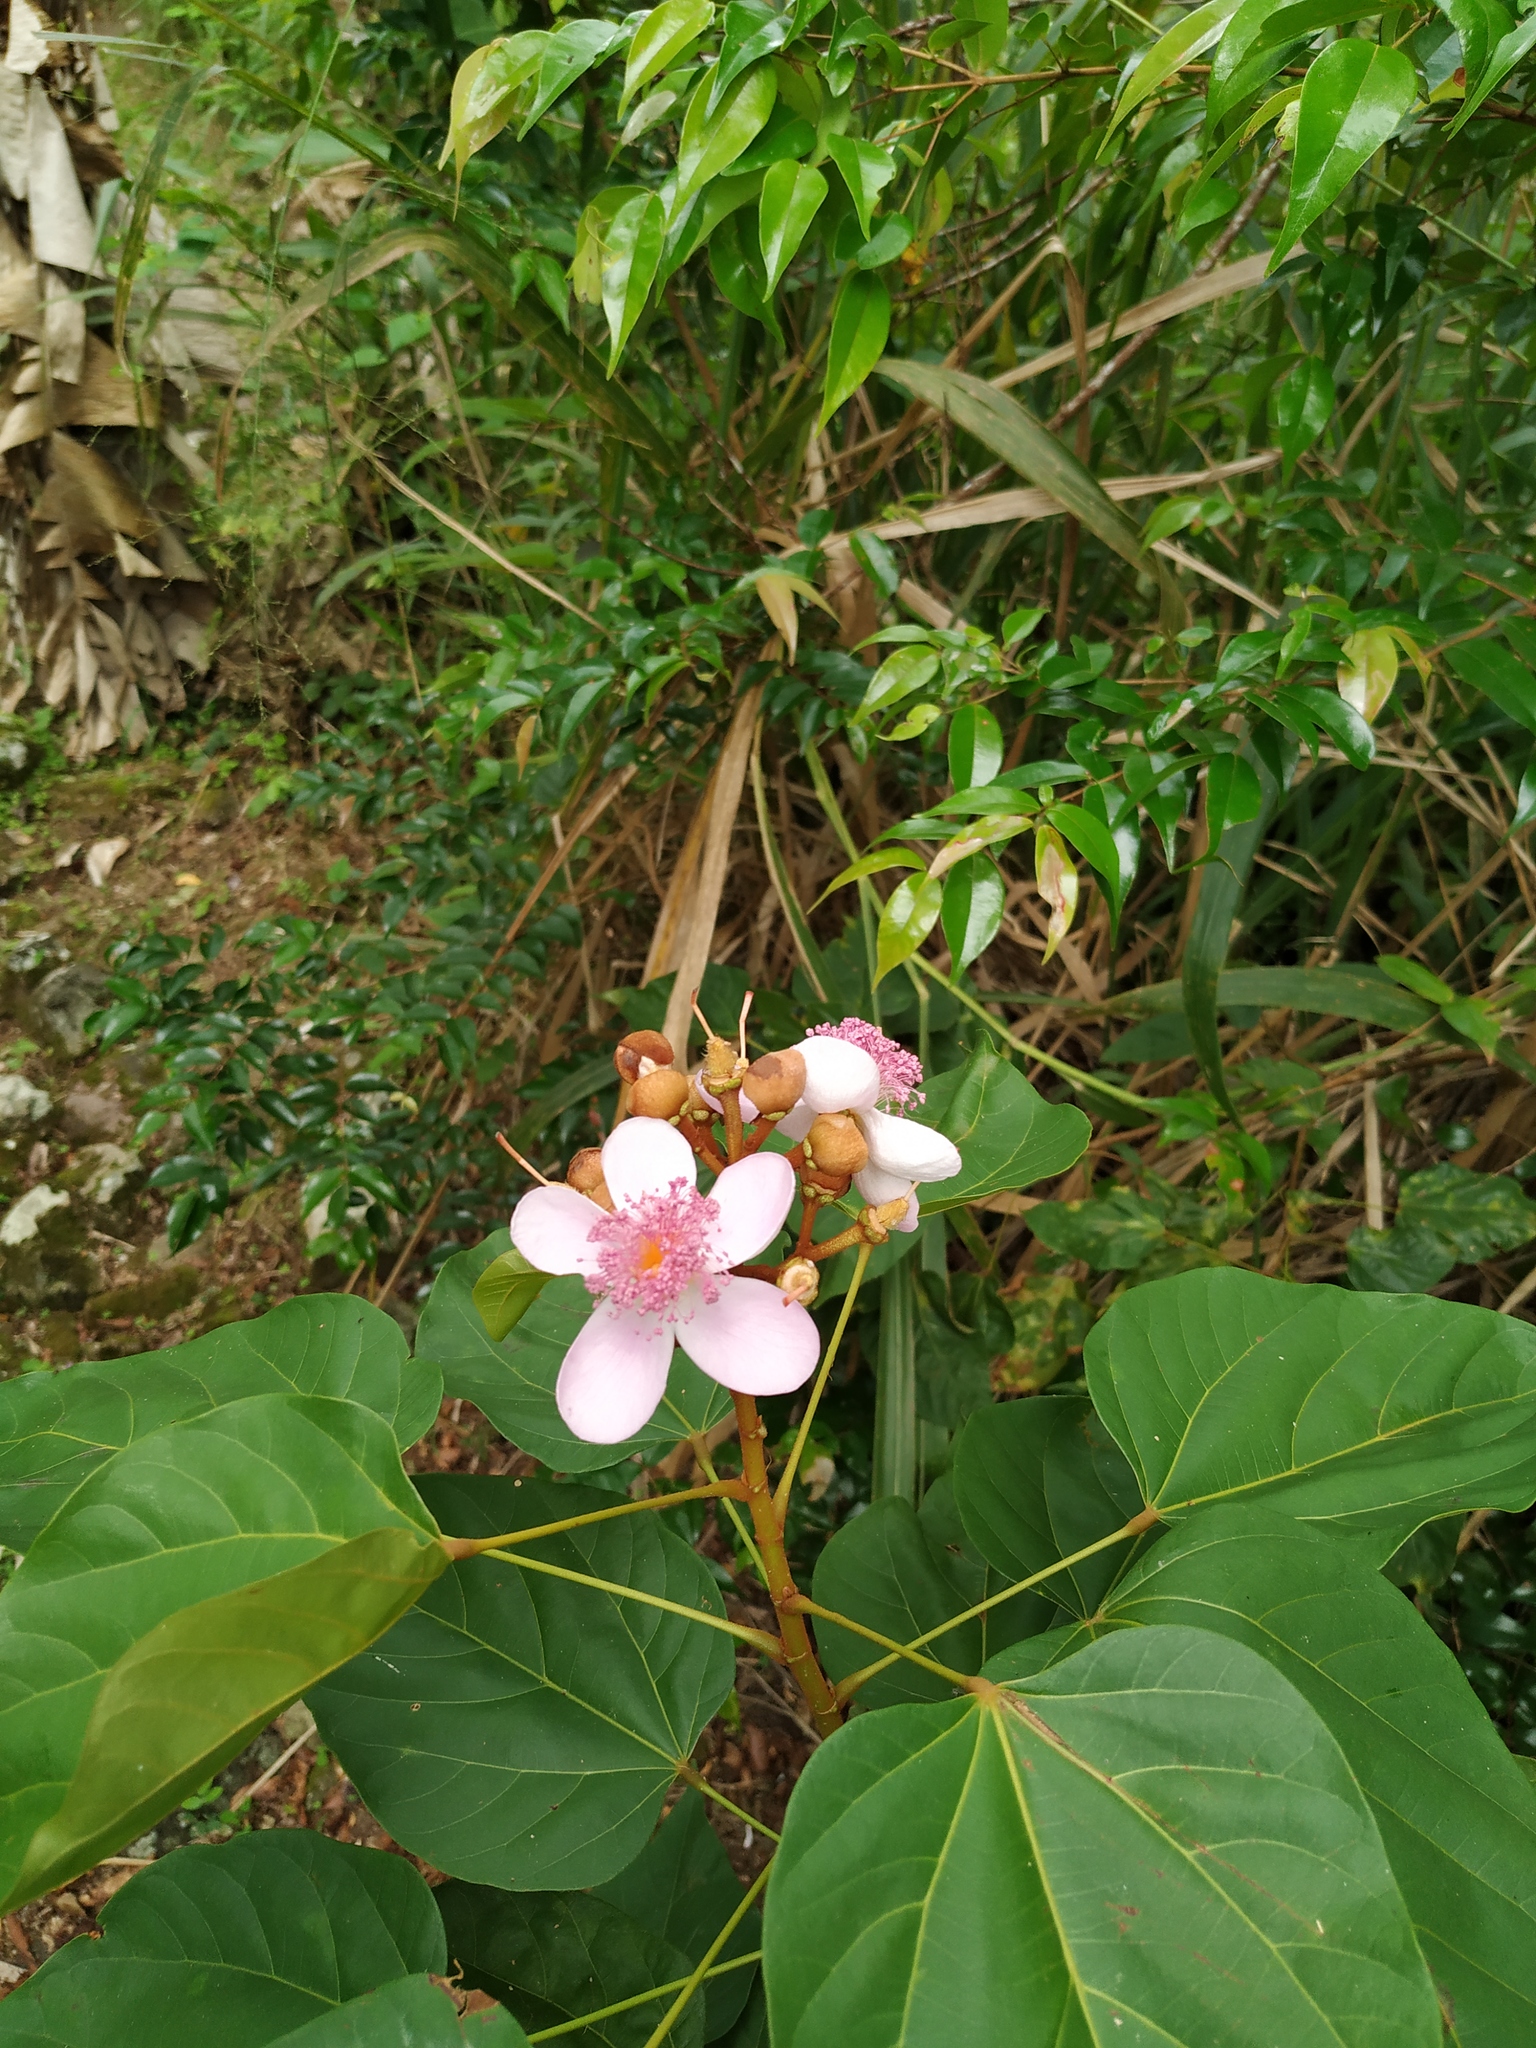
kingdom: Plantae
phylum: Tracheophyta
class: Magnoliopsida
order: Malvales
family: Bixaceae
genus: Bixa
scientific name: Bixa orellana
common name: Lipsticktree
